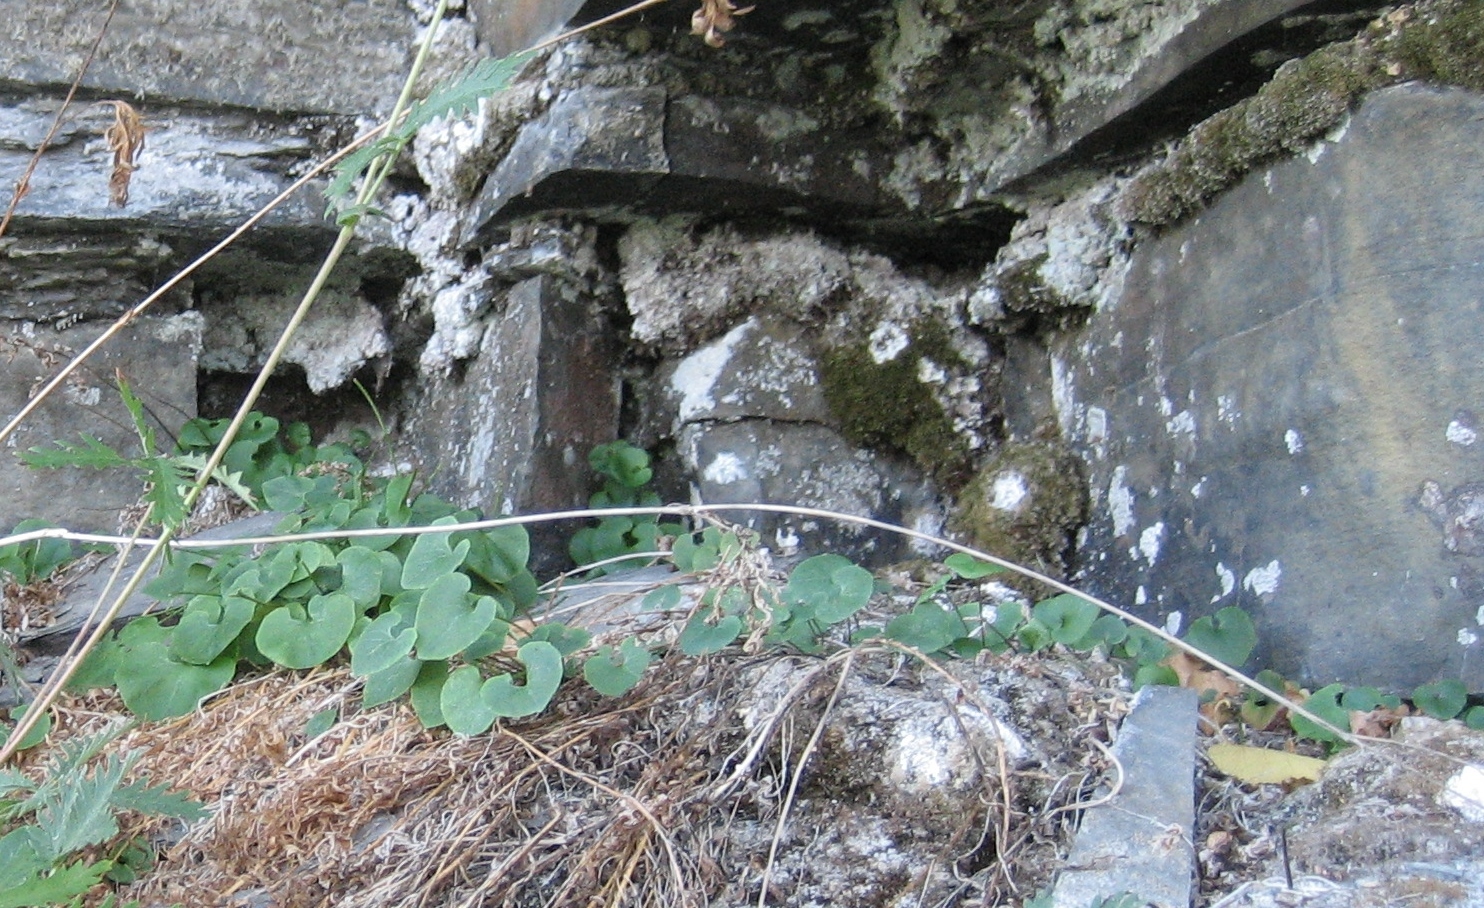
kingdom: Plantae
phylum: Tracheophyta
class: Magnoliopsida
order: Piperales
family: Aristolochiaceae
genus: Asarum
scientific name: Asarum canadense
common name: Wild ginger
